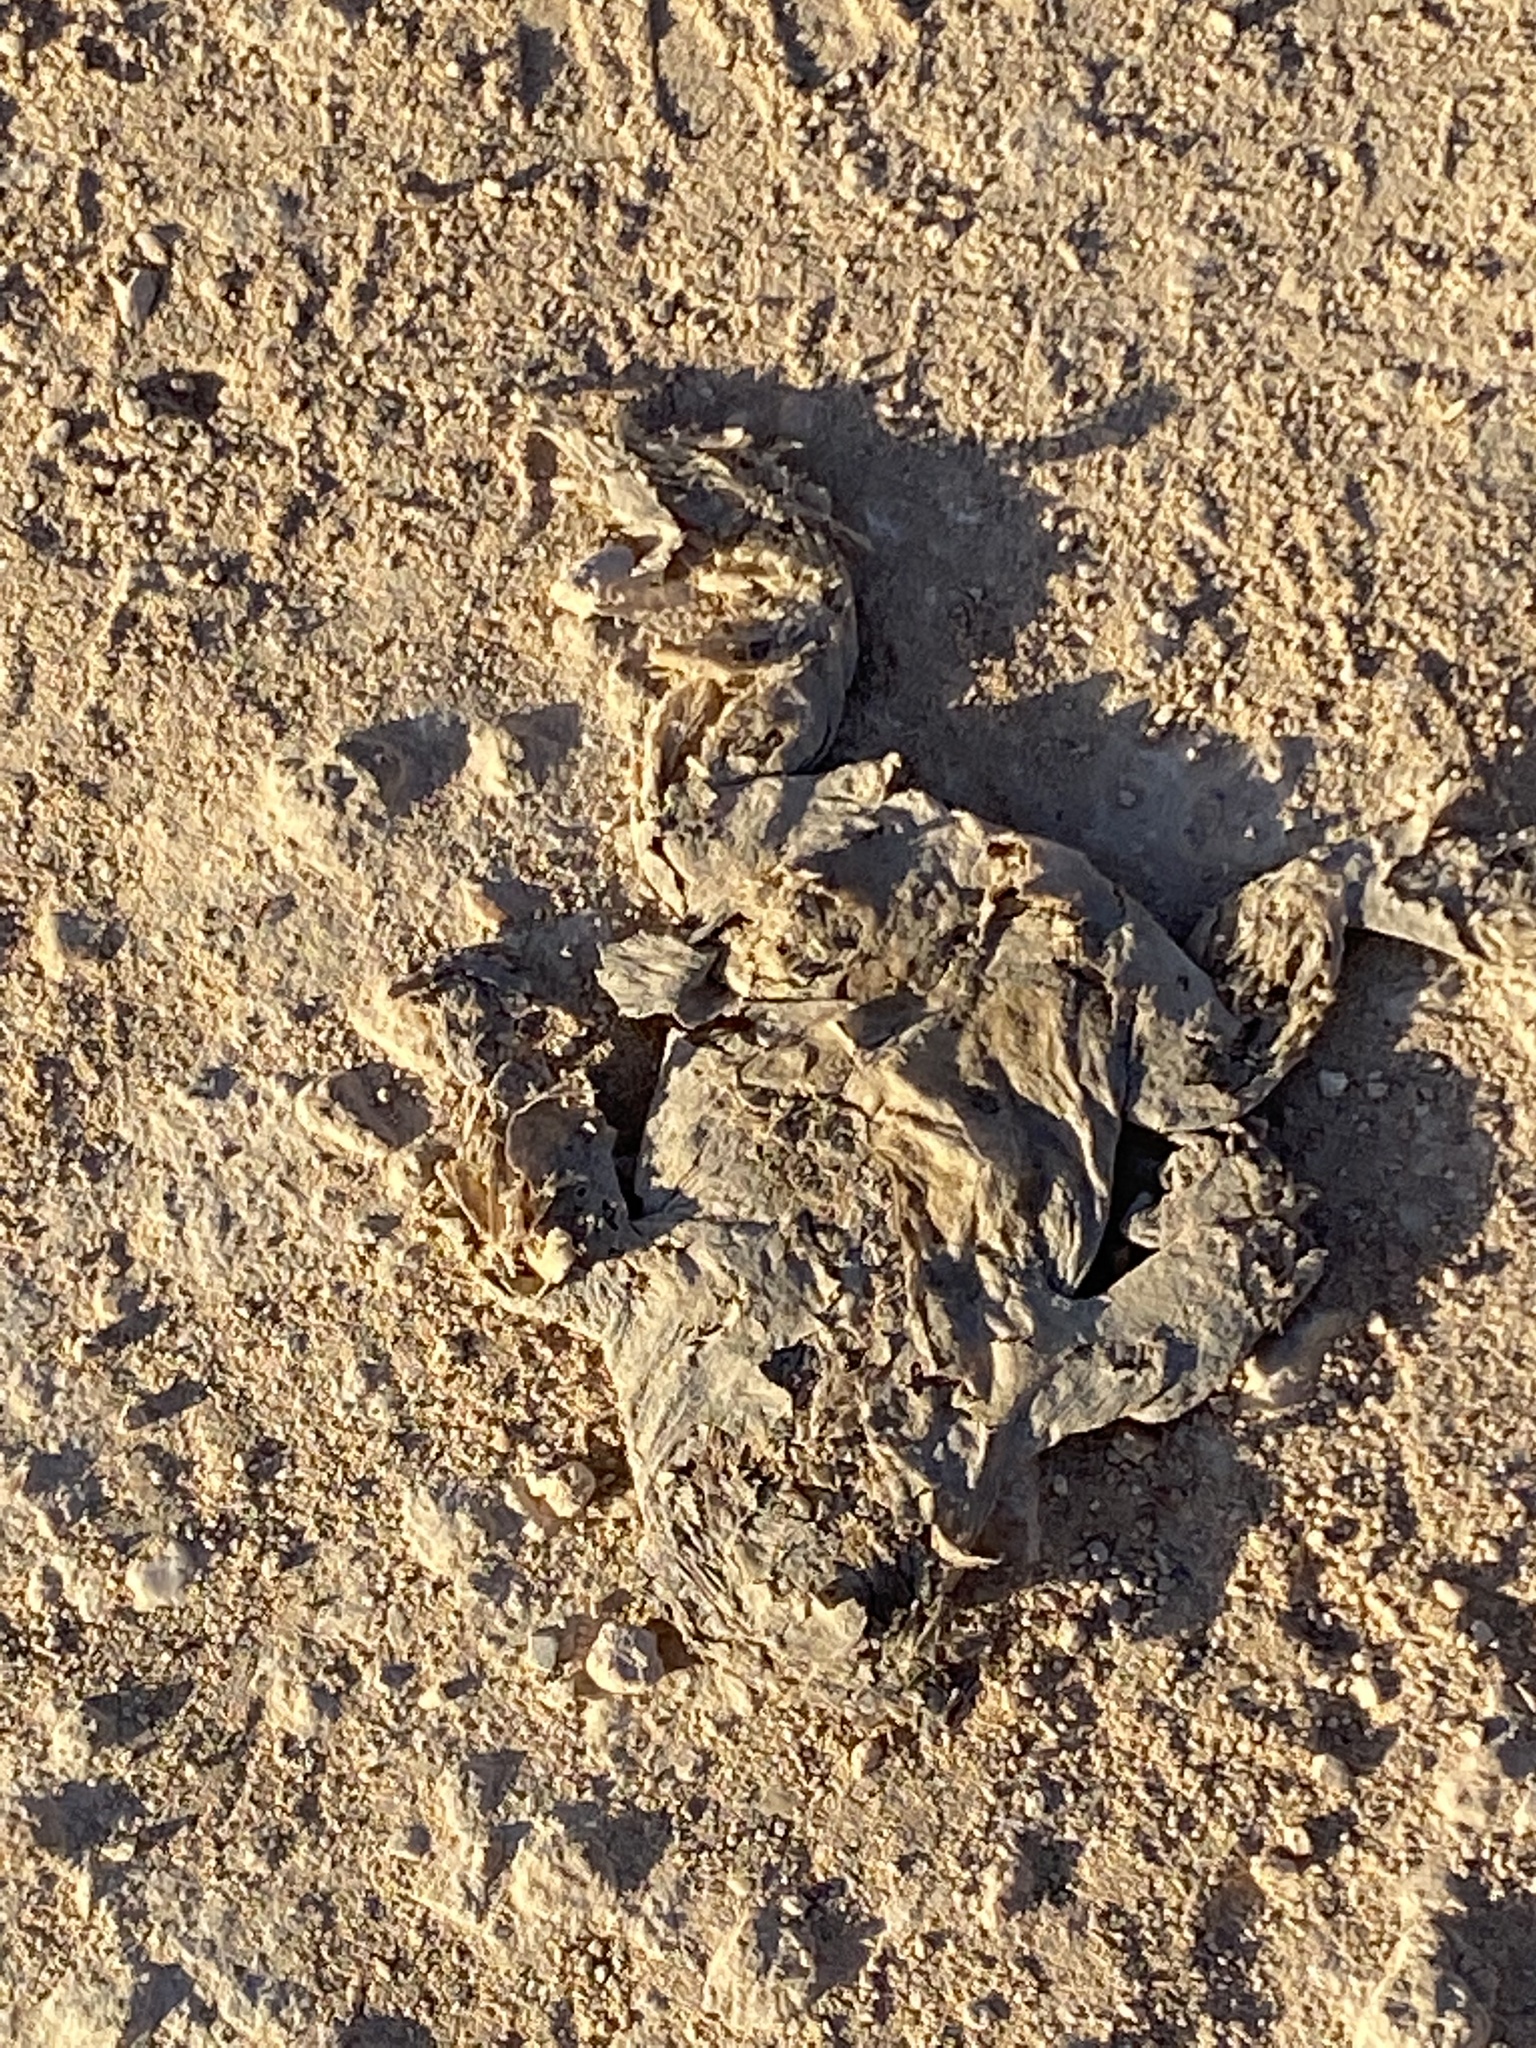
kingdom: Animalia
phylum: Chordata
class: Amphibia
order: Anura
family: Bufonidae
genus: Bufotes
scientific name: Bufotes boulengeri
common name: African green toad
